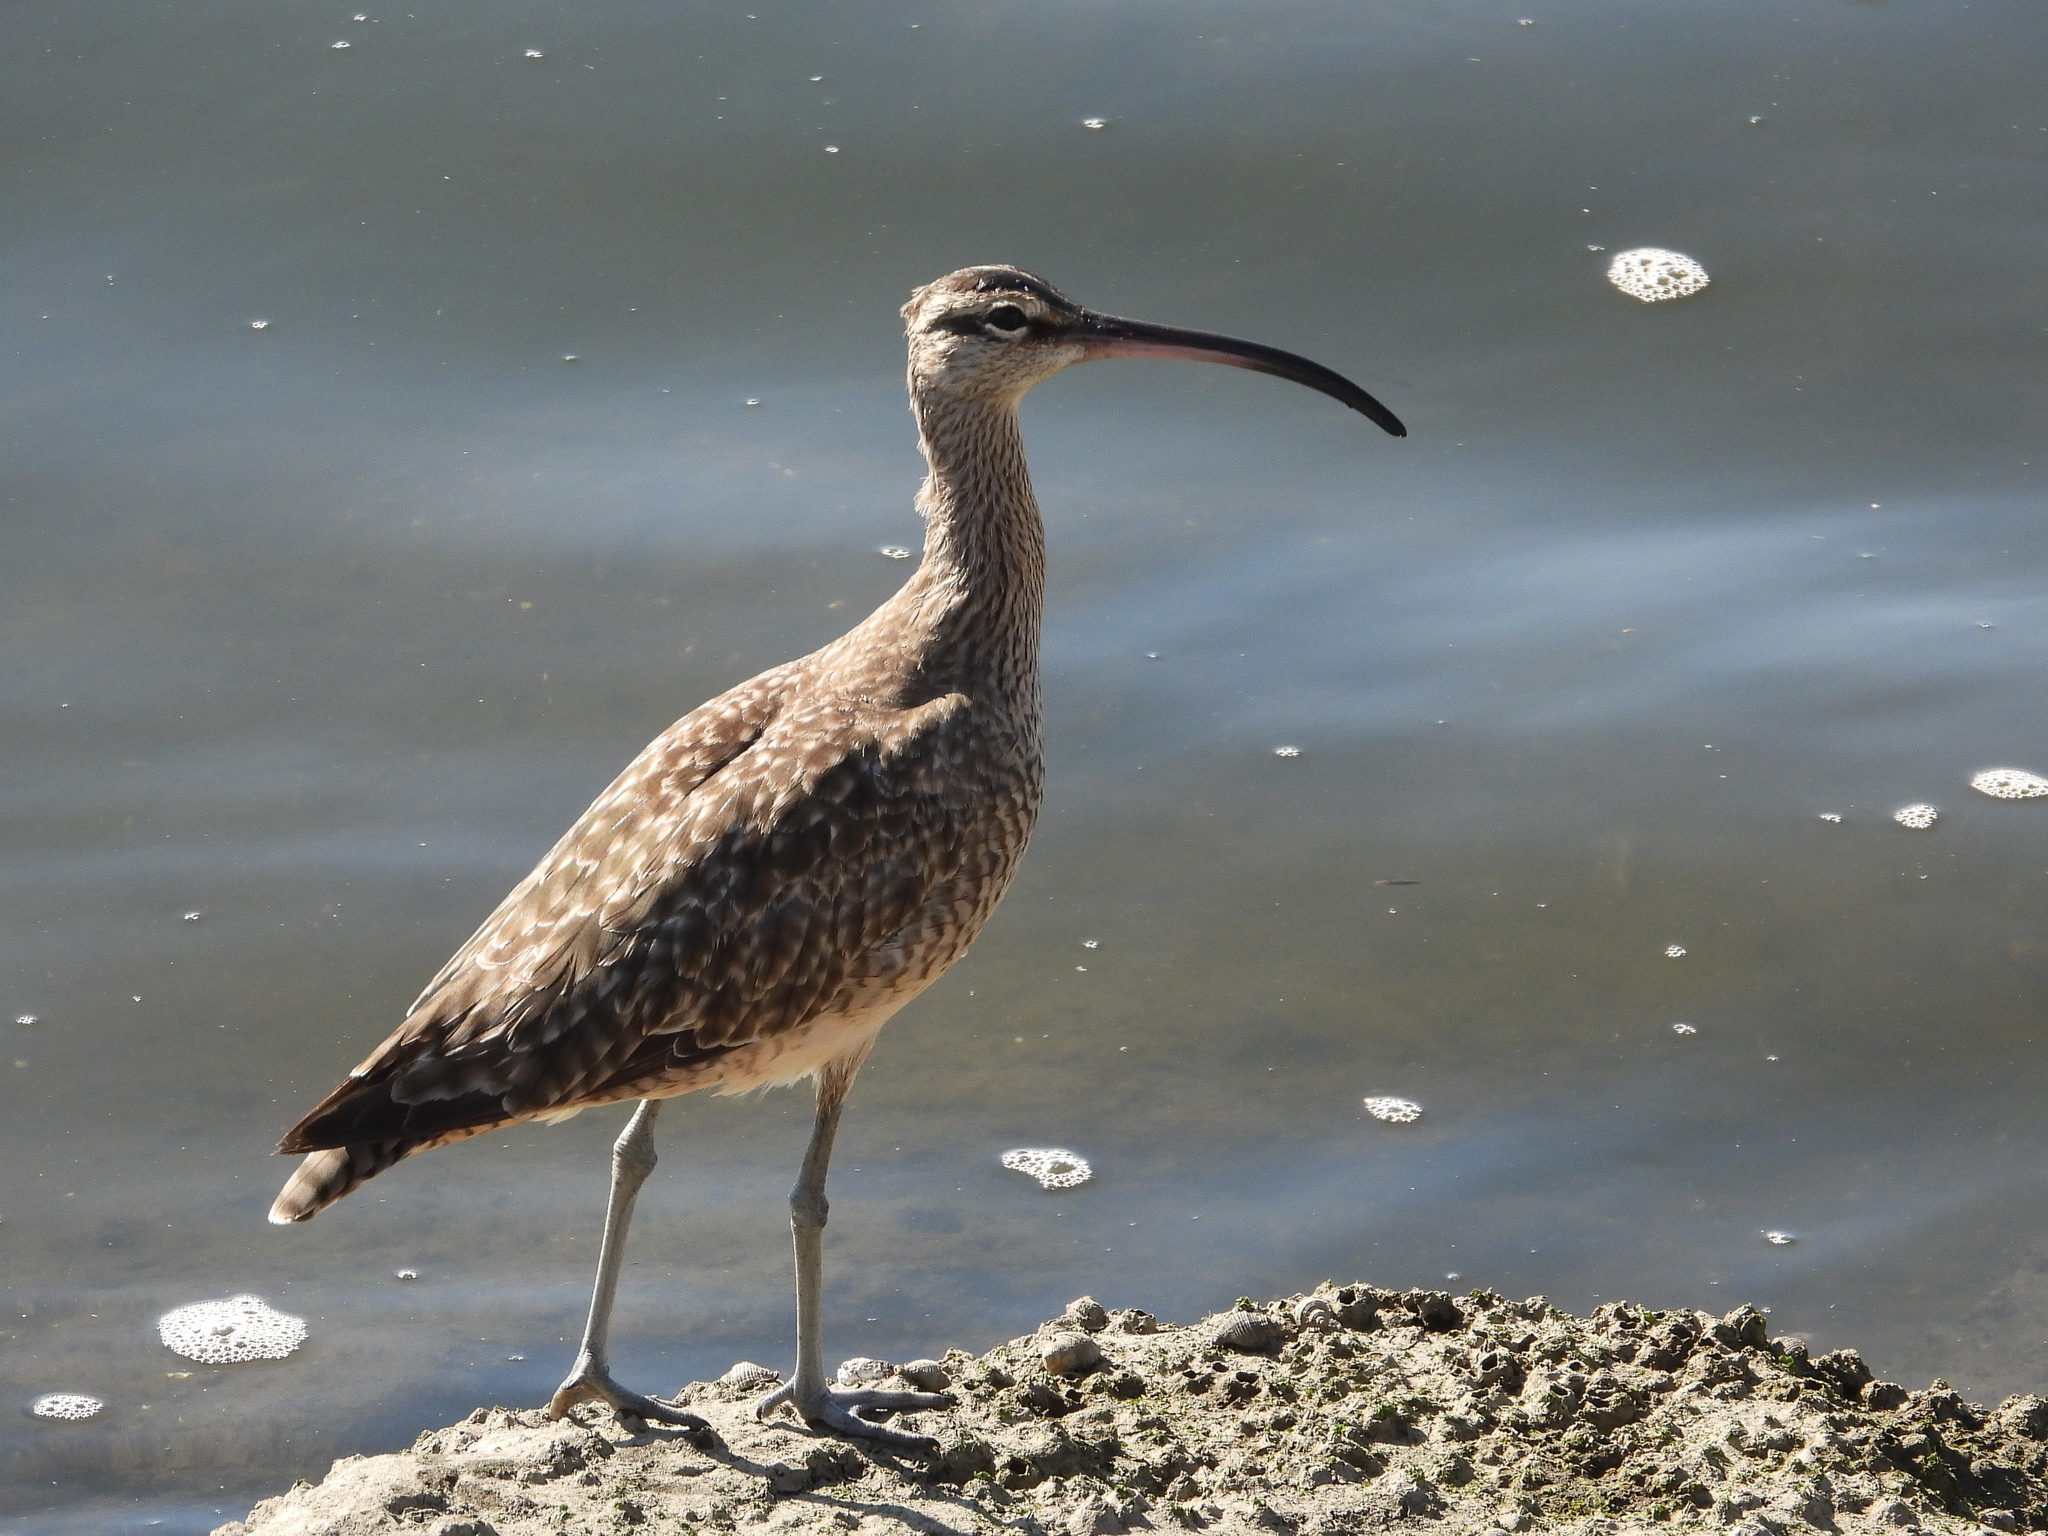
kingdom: Animalia
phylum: Chordata
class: Aves
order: Charadriiformes
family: Scolopacidae
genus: Numenius
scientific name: Numenius phaeopus
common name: Whimbrel
